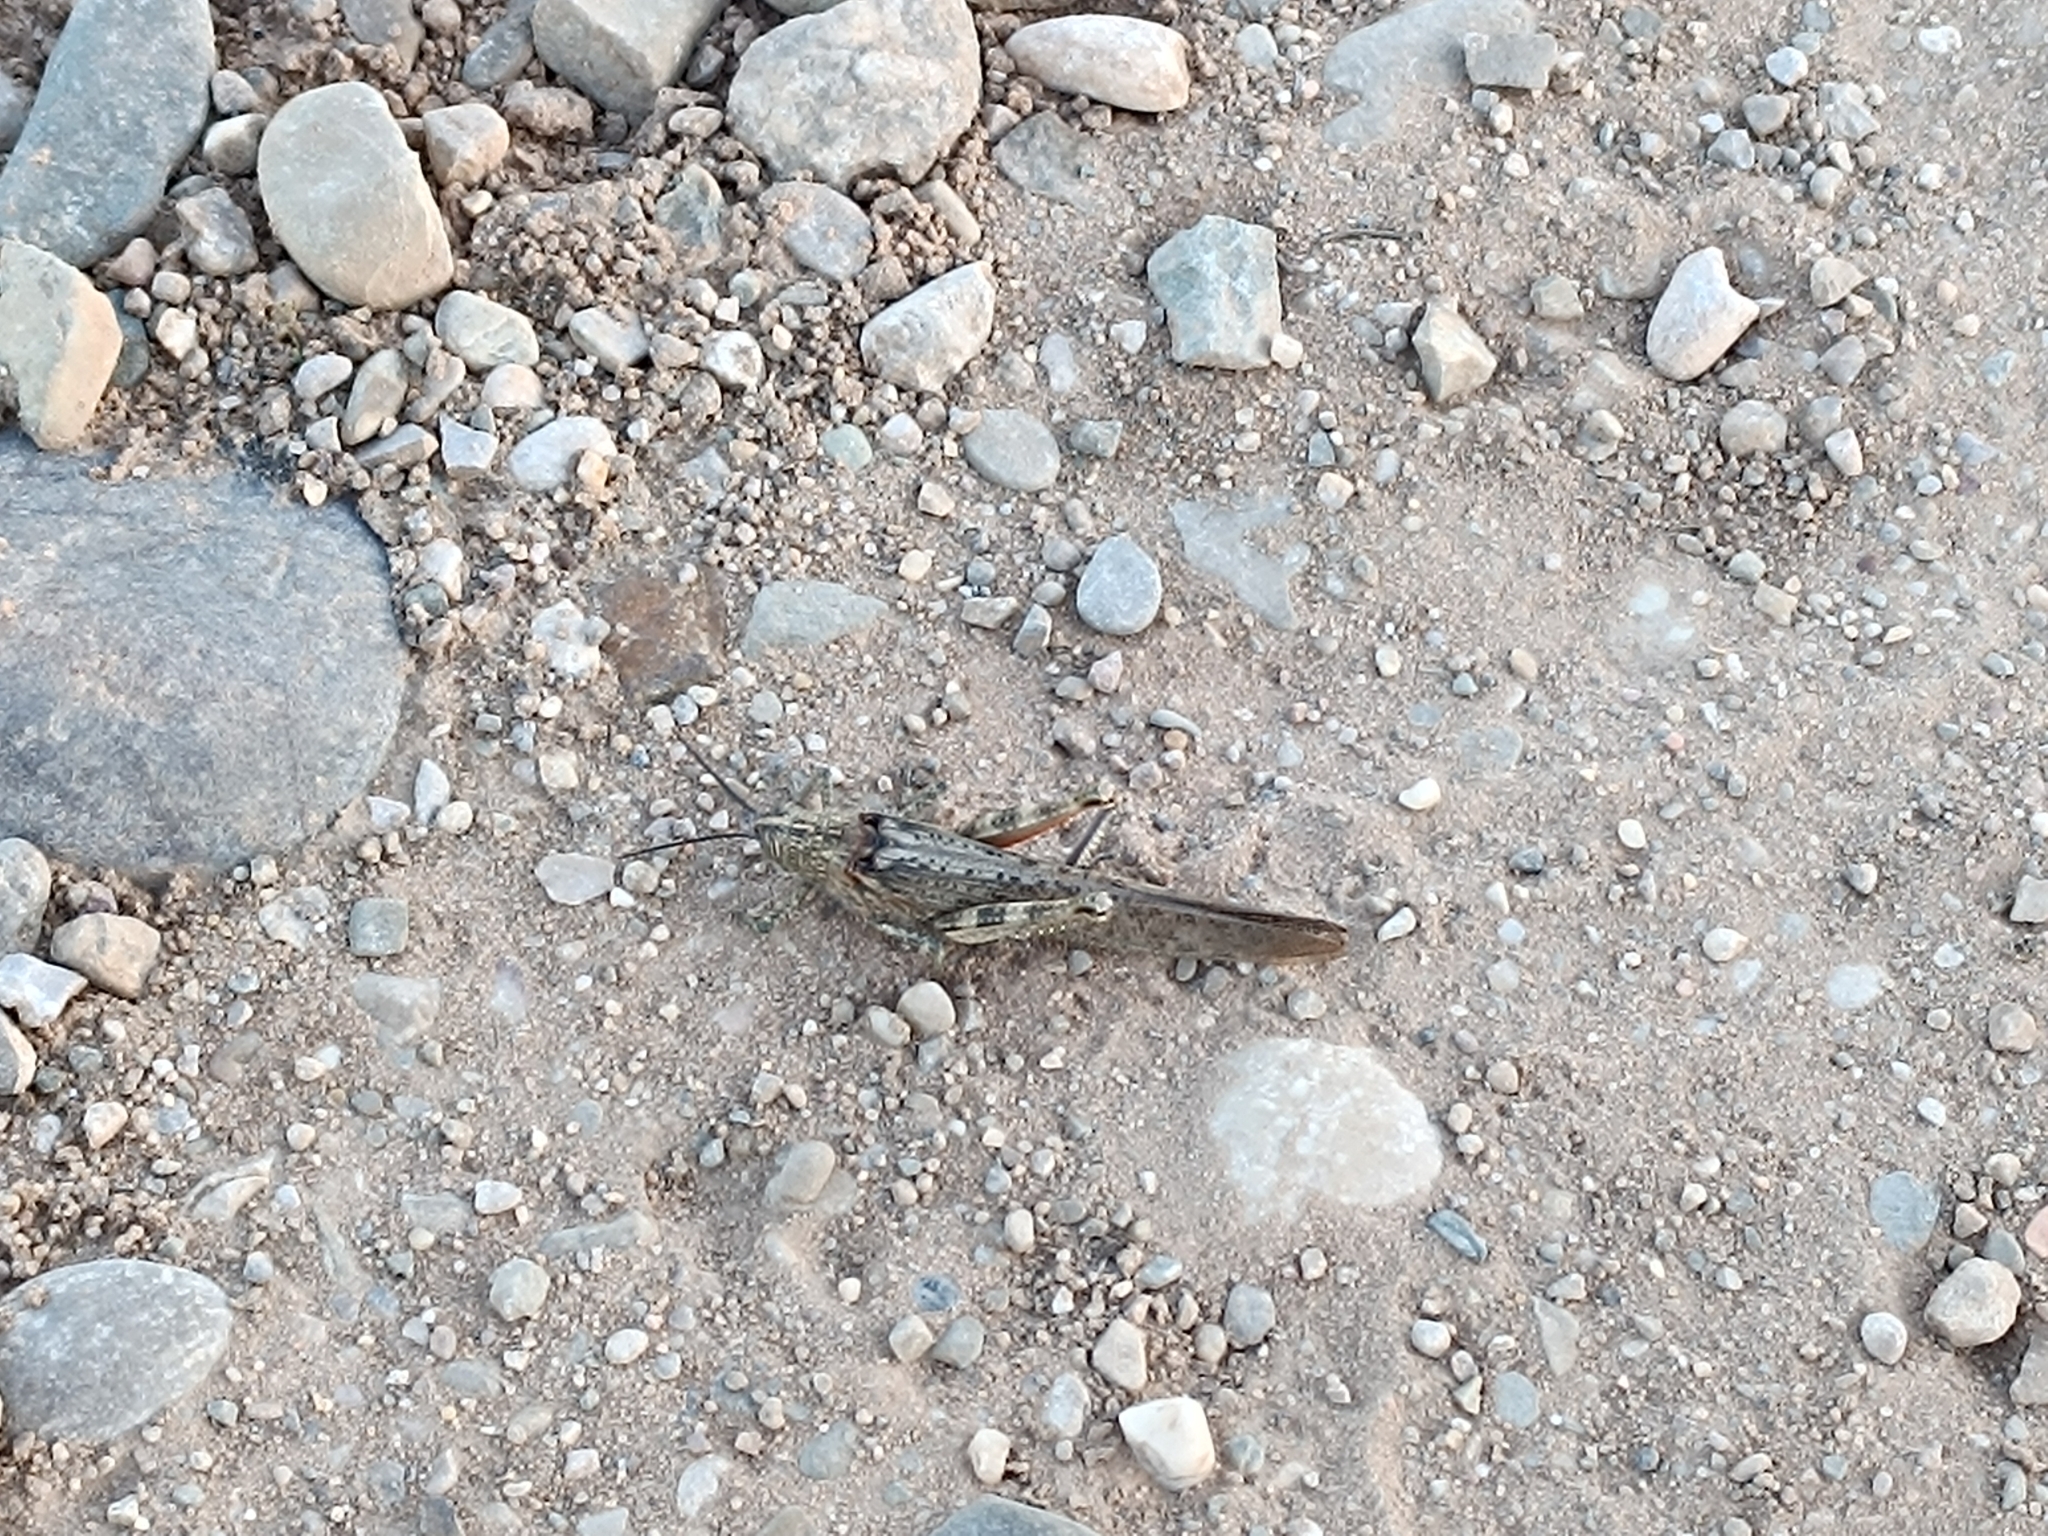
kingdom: Animalia
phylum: Arthropoda
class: Insecta
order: Orthoptera
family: Acrididae
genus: Anacridium
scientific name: Anacridium aegyptium
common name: Egyptian grasshopper
